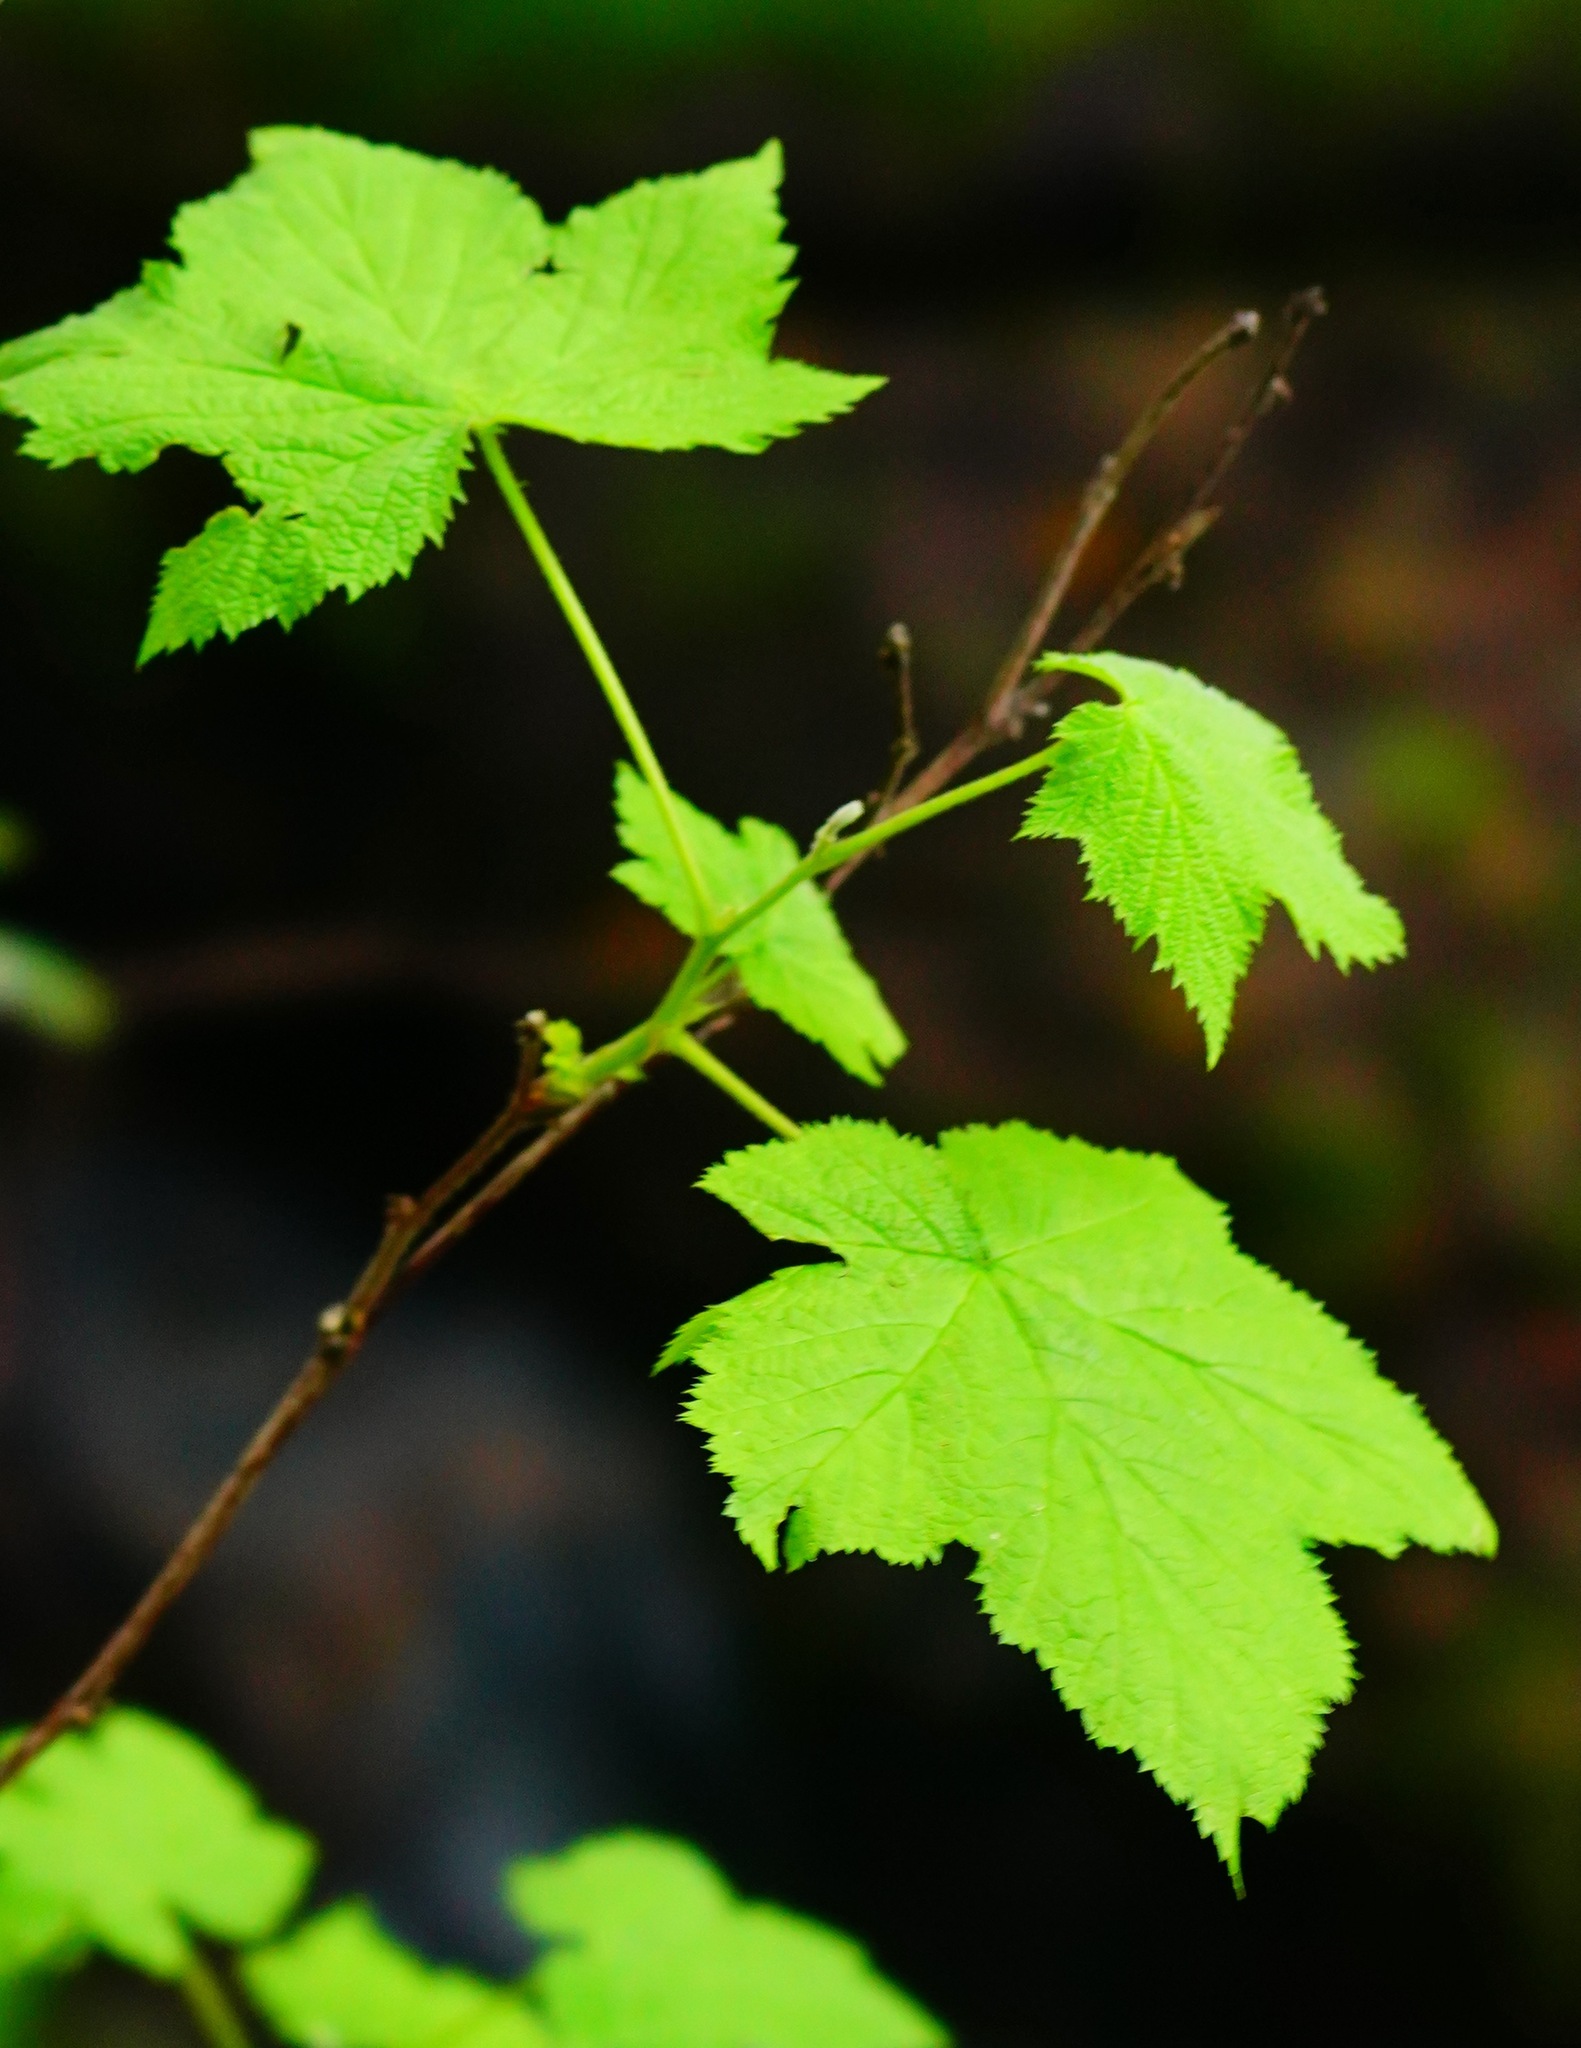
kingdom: Plantae
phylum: Tracheophyta
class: Magnoliopsida
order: Rosales
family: Rosaceae
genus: Rubus
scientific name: Rubus parviflorus
